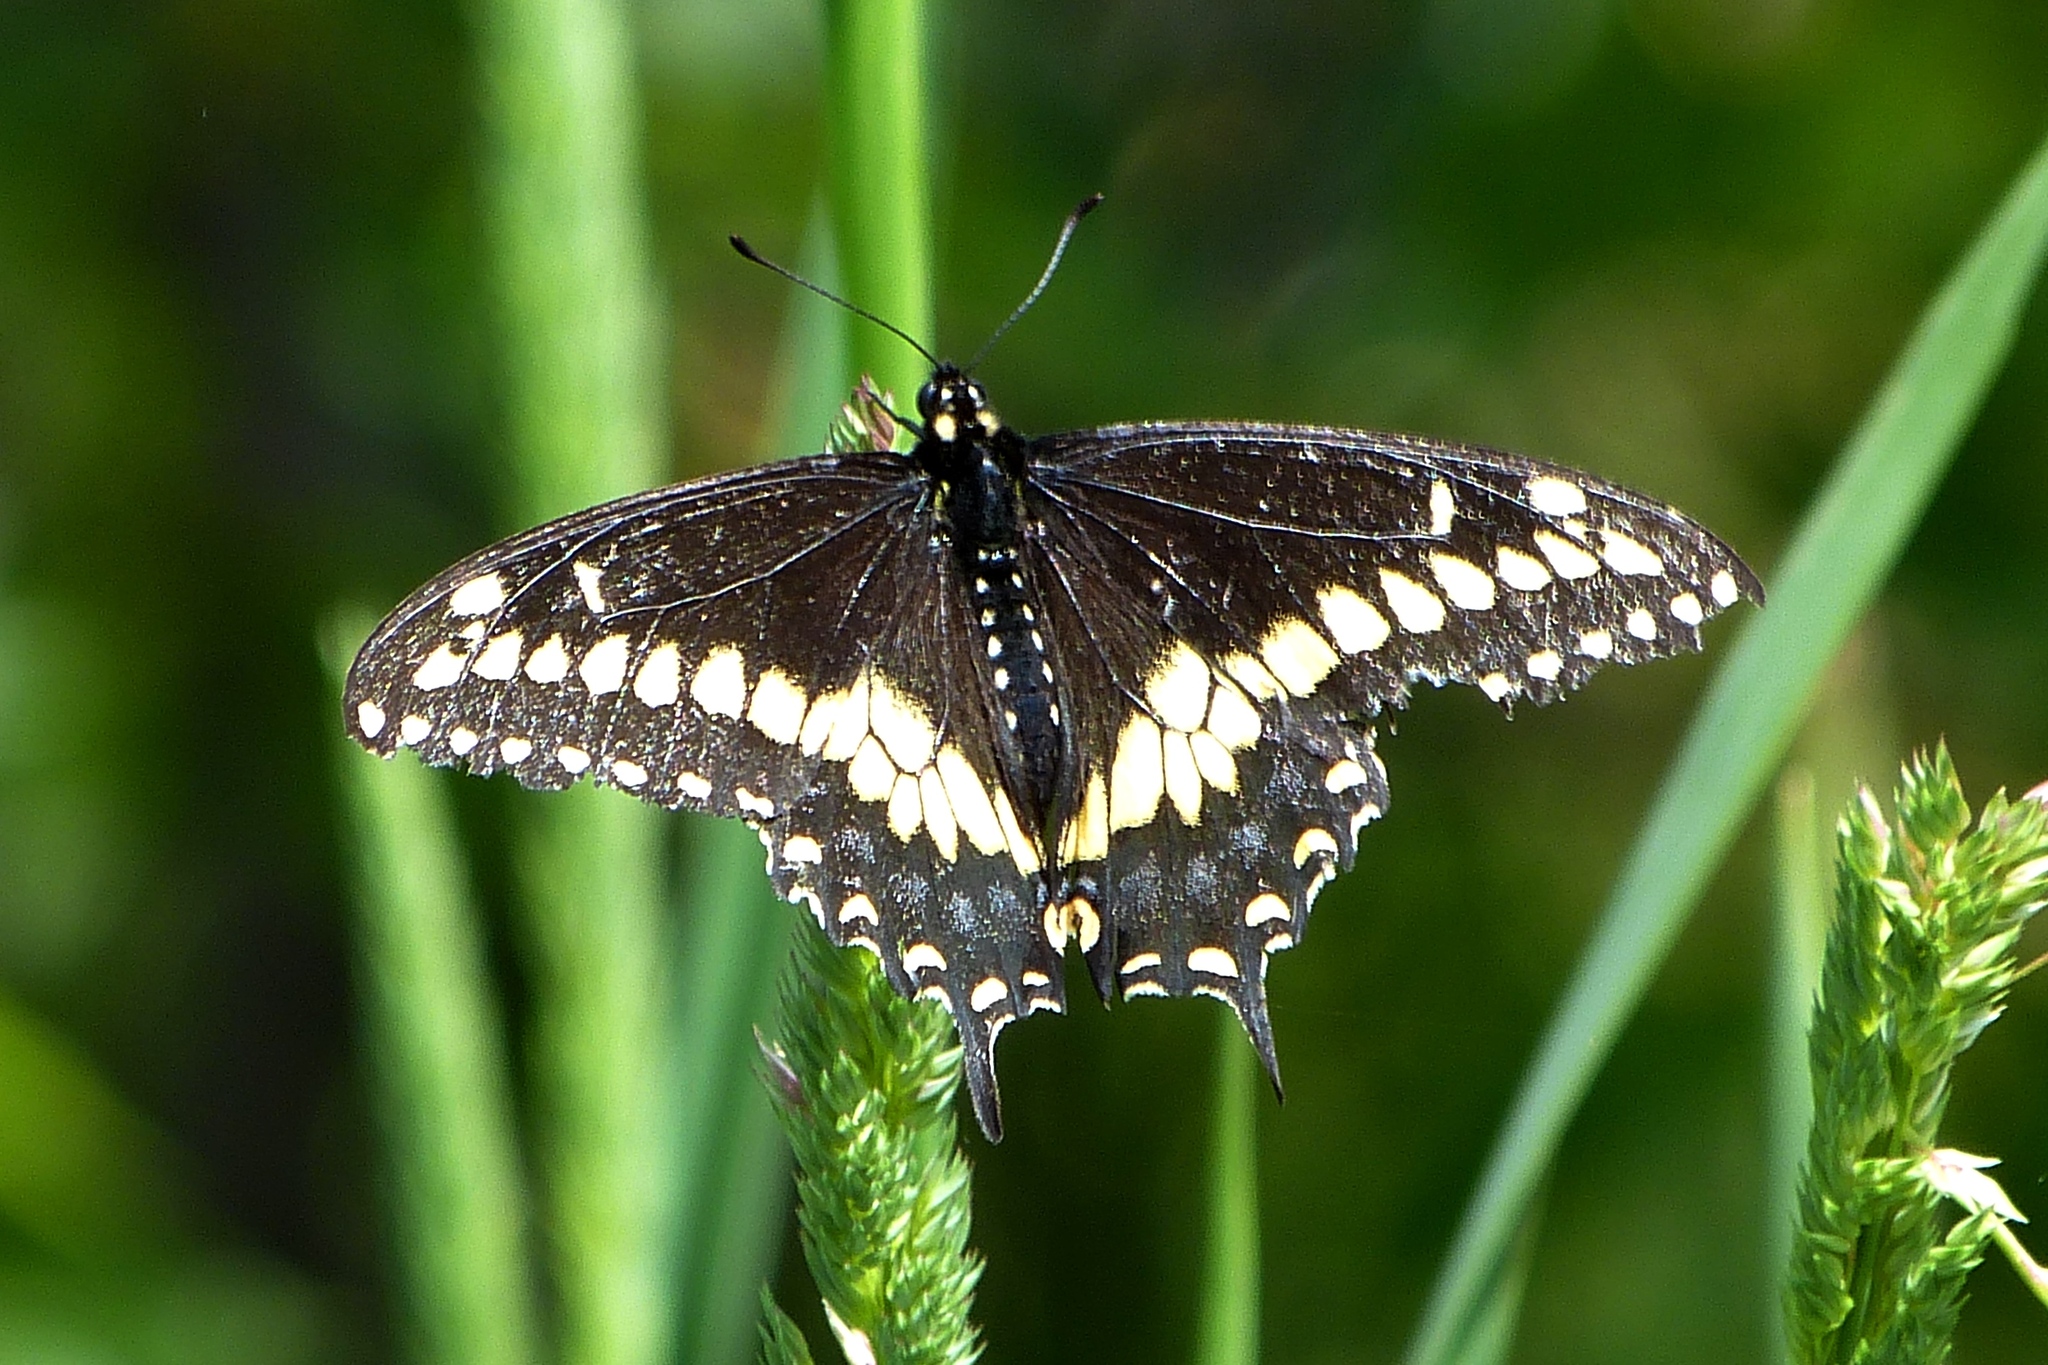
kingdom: Animalia
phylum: Arthropoda
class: Insecta
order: Lepidoptera
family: Papilionidae
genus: Papilio
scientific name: Papilio polyxenes
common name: Black swallowtail
